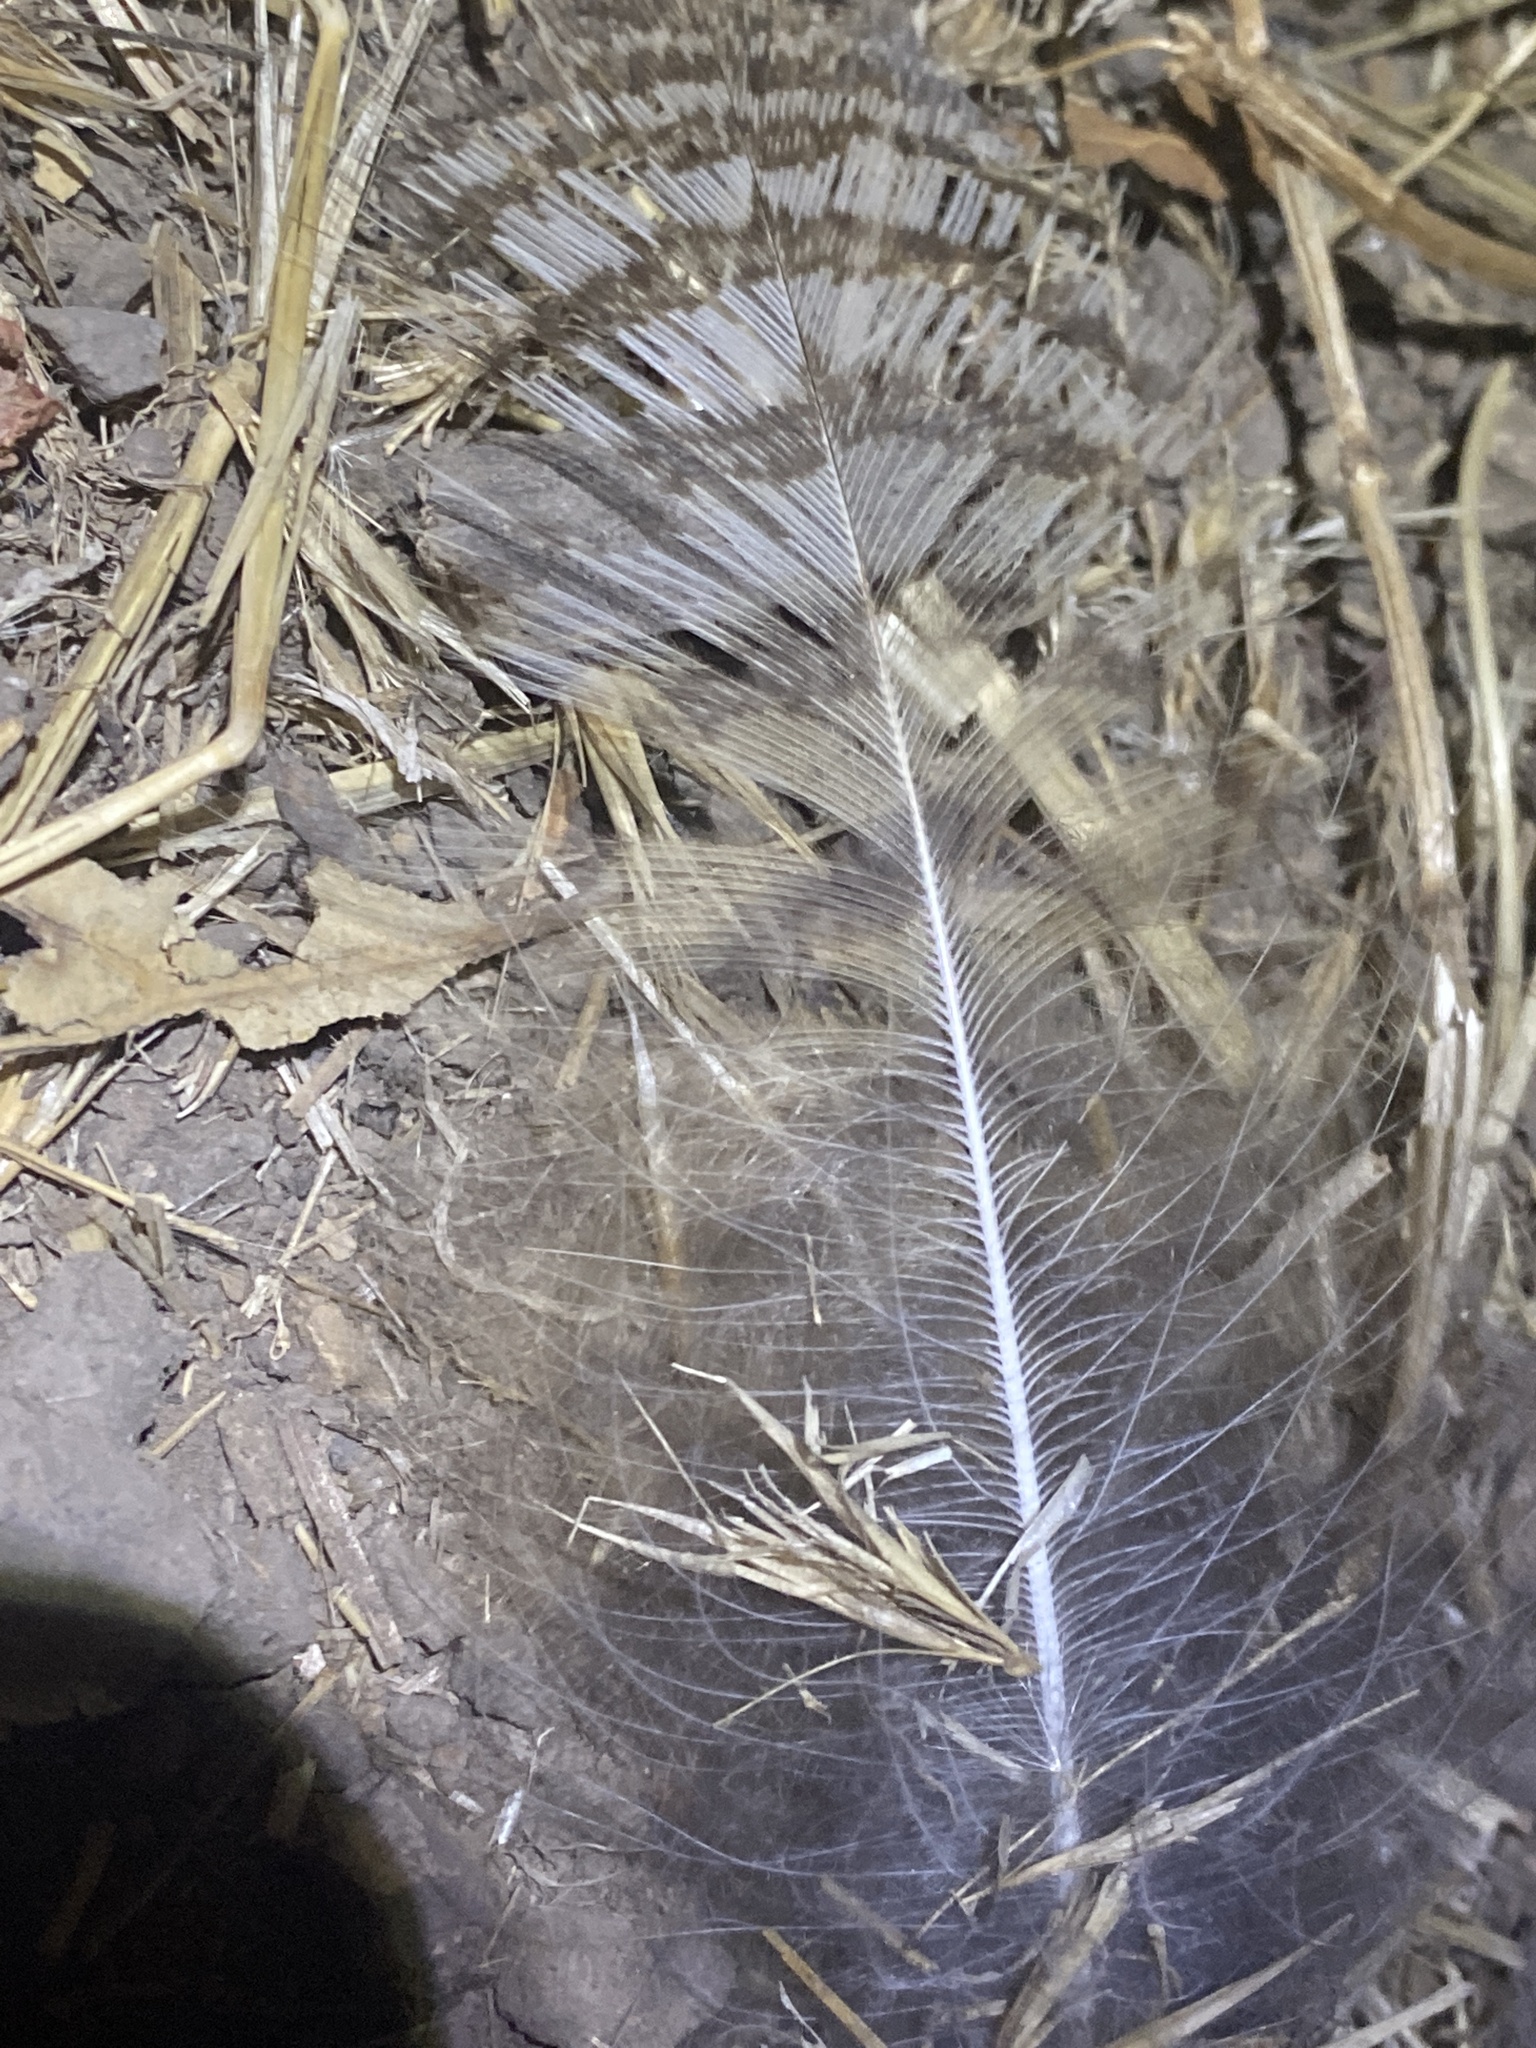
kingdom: Animalia
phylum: Chordata
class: Aves
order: Strigiformes
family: Strigidae
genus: Bubo
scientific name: Bubo virginianus
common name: Great horned owl
